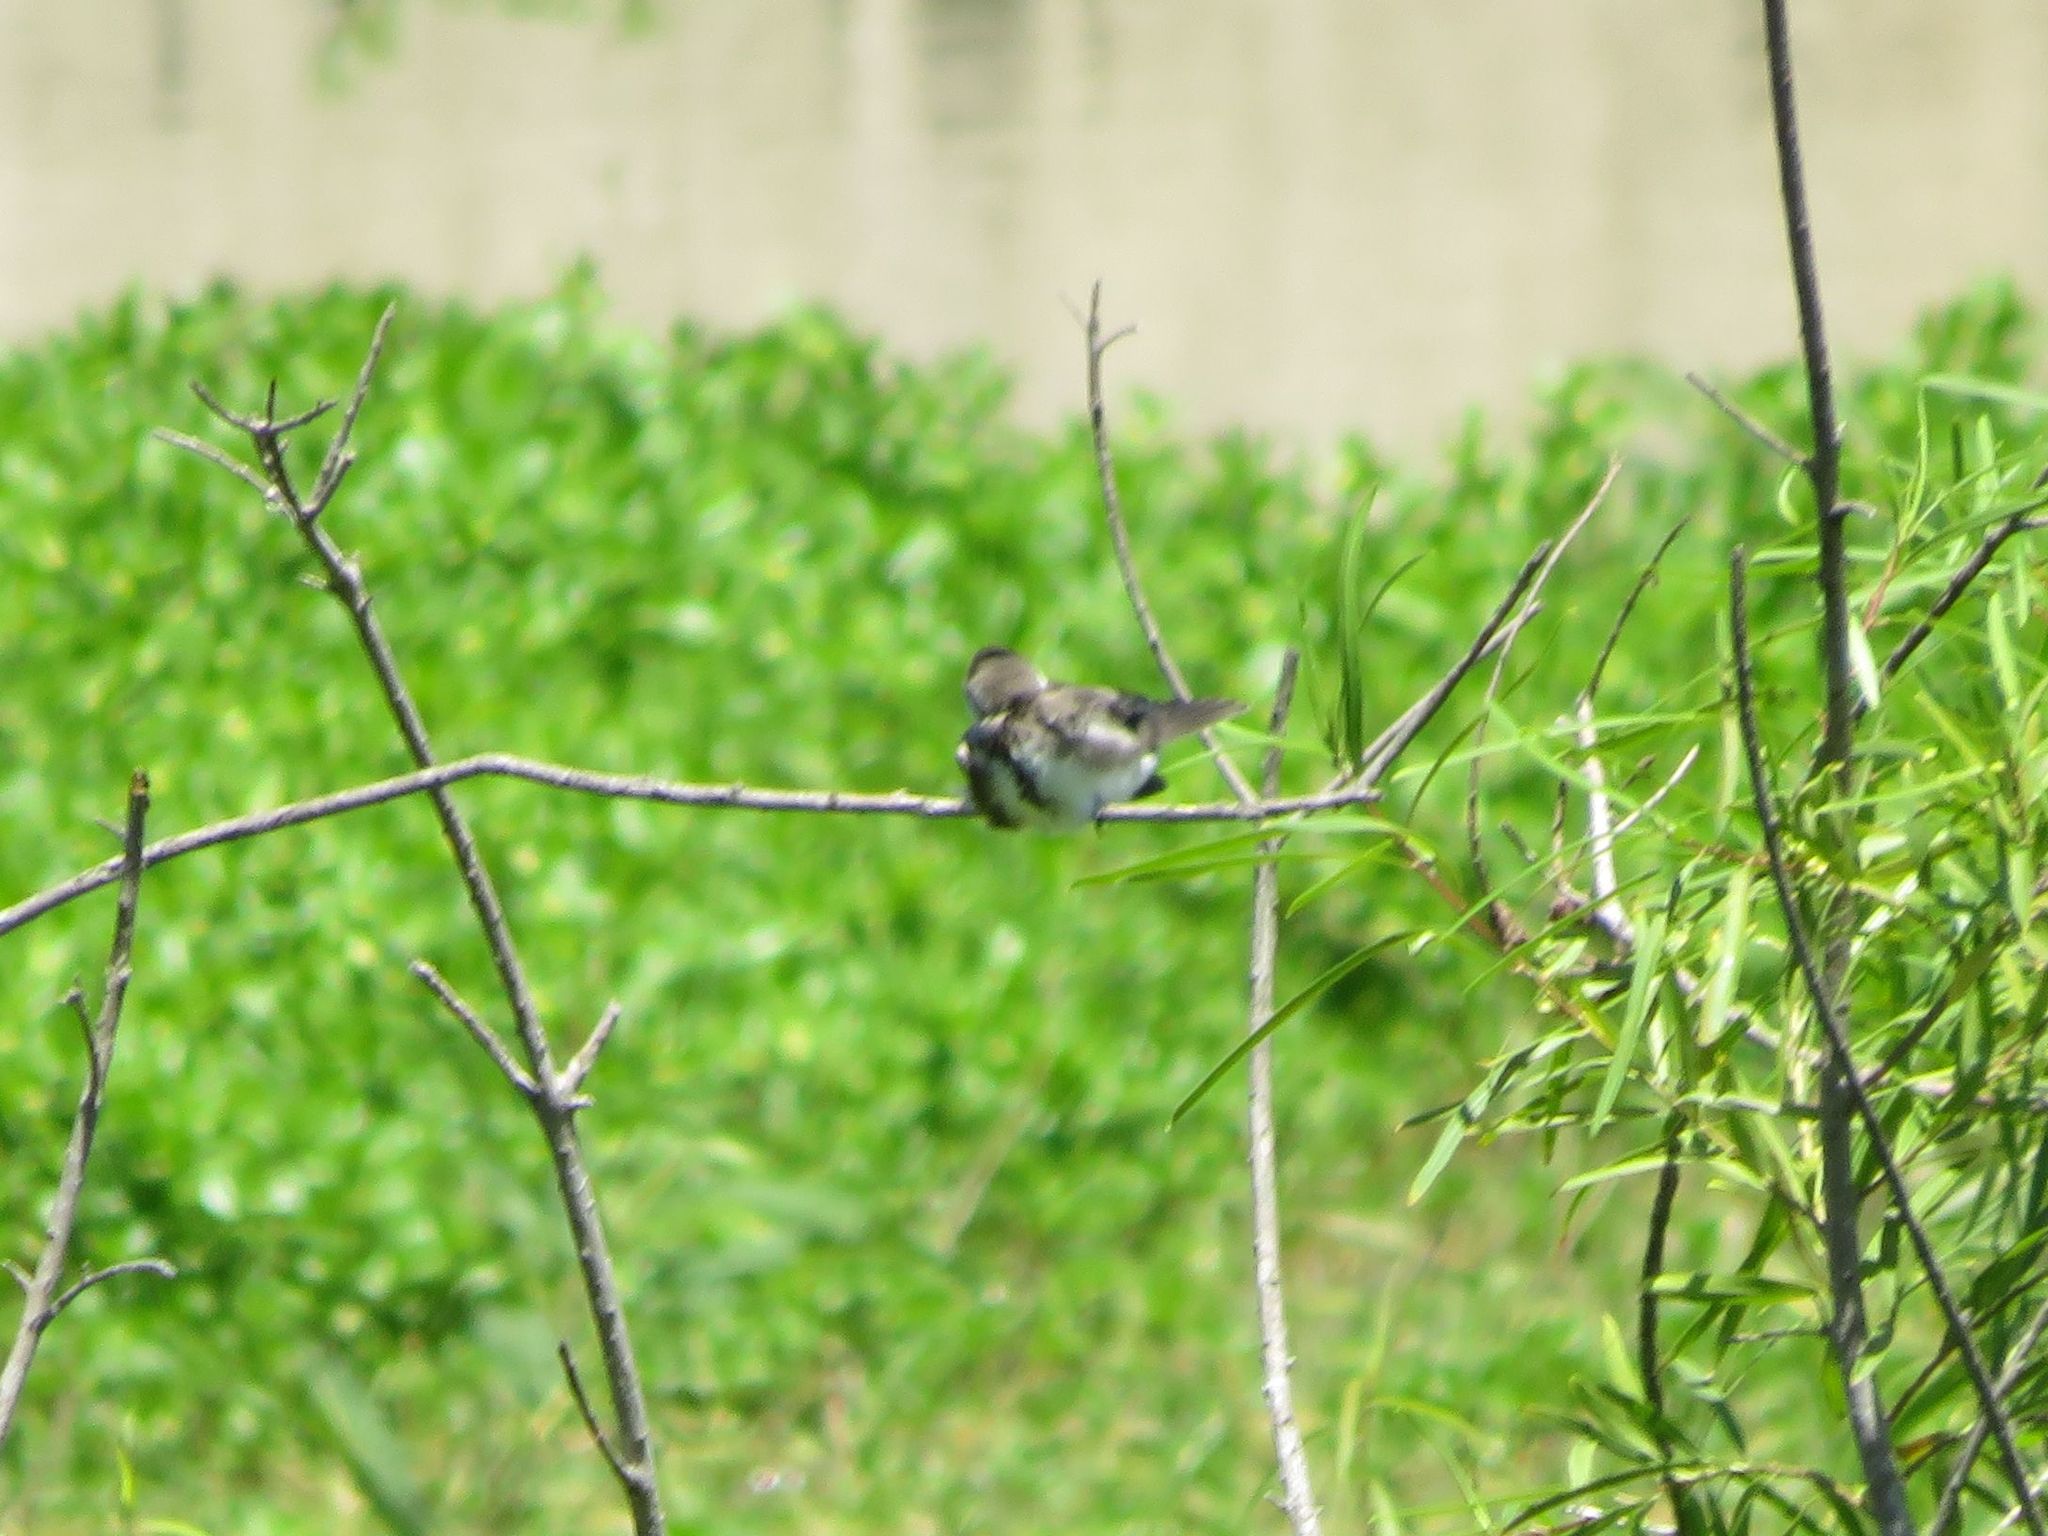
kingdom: Animalia
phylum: Chordata
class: Aves
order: Passeriformes
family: Hirundinidae
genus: Progne
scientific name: Progne tapera
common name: Brown-chested martin
